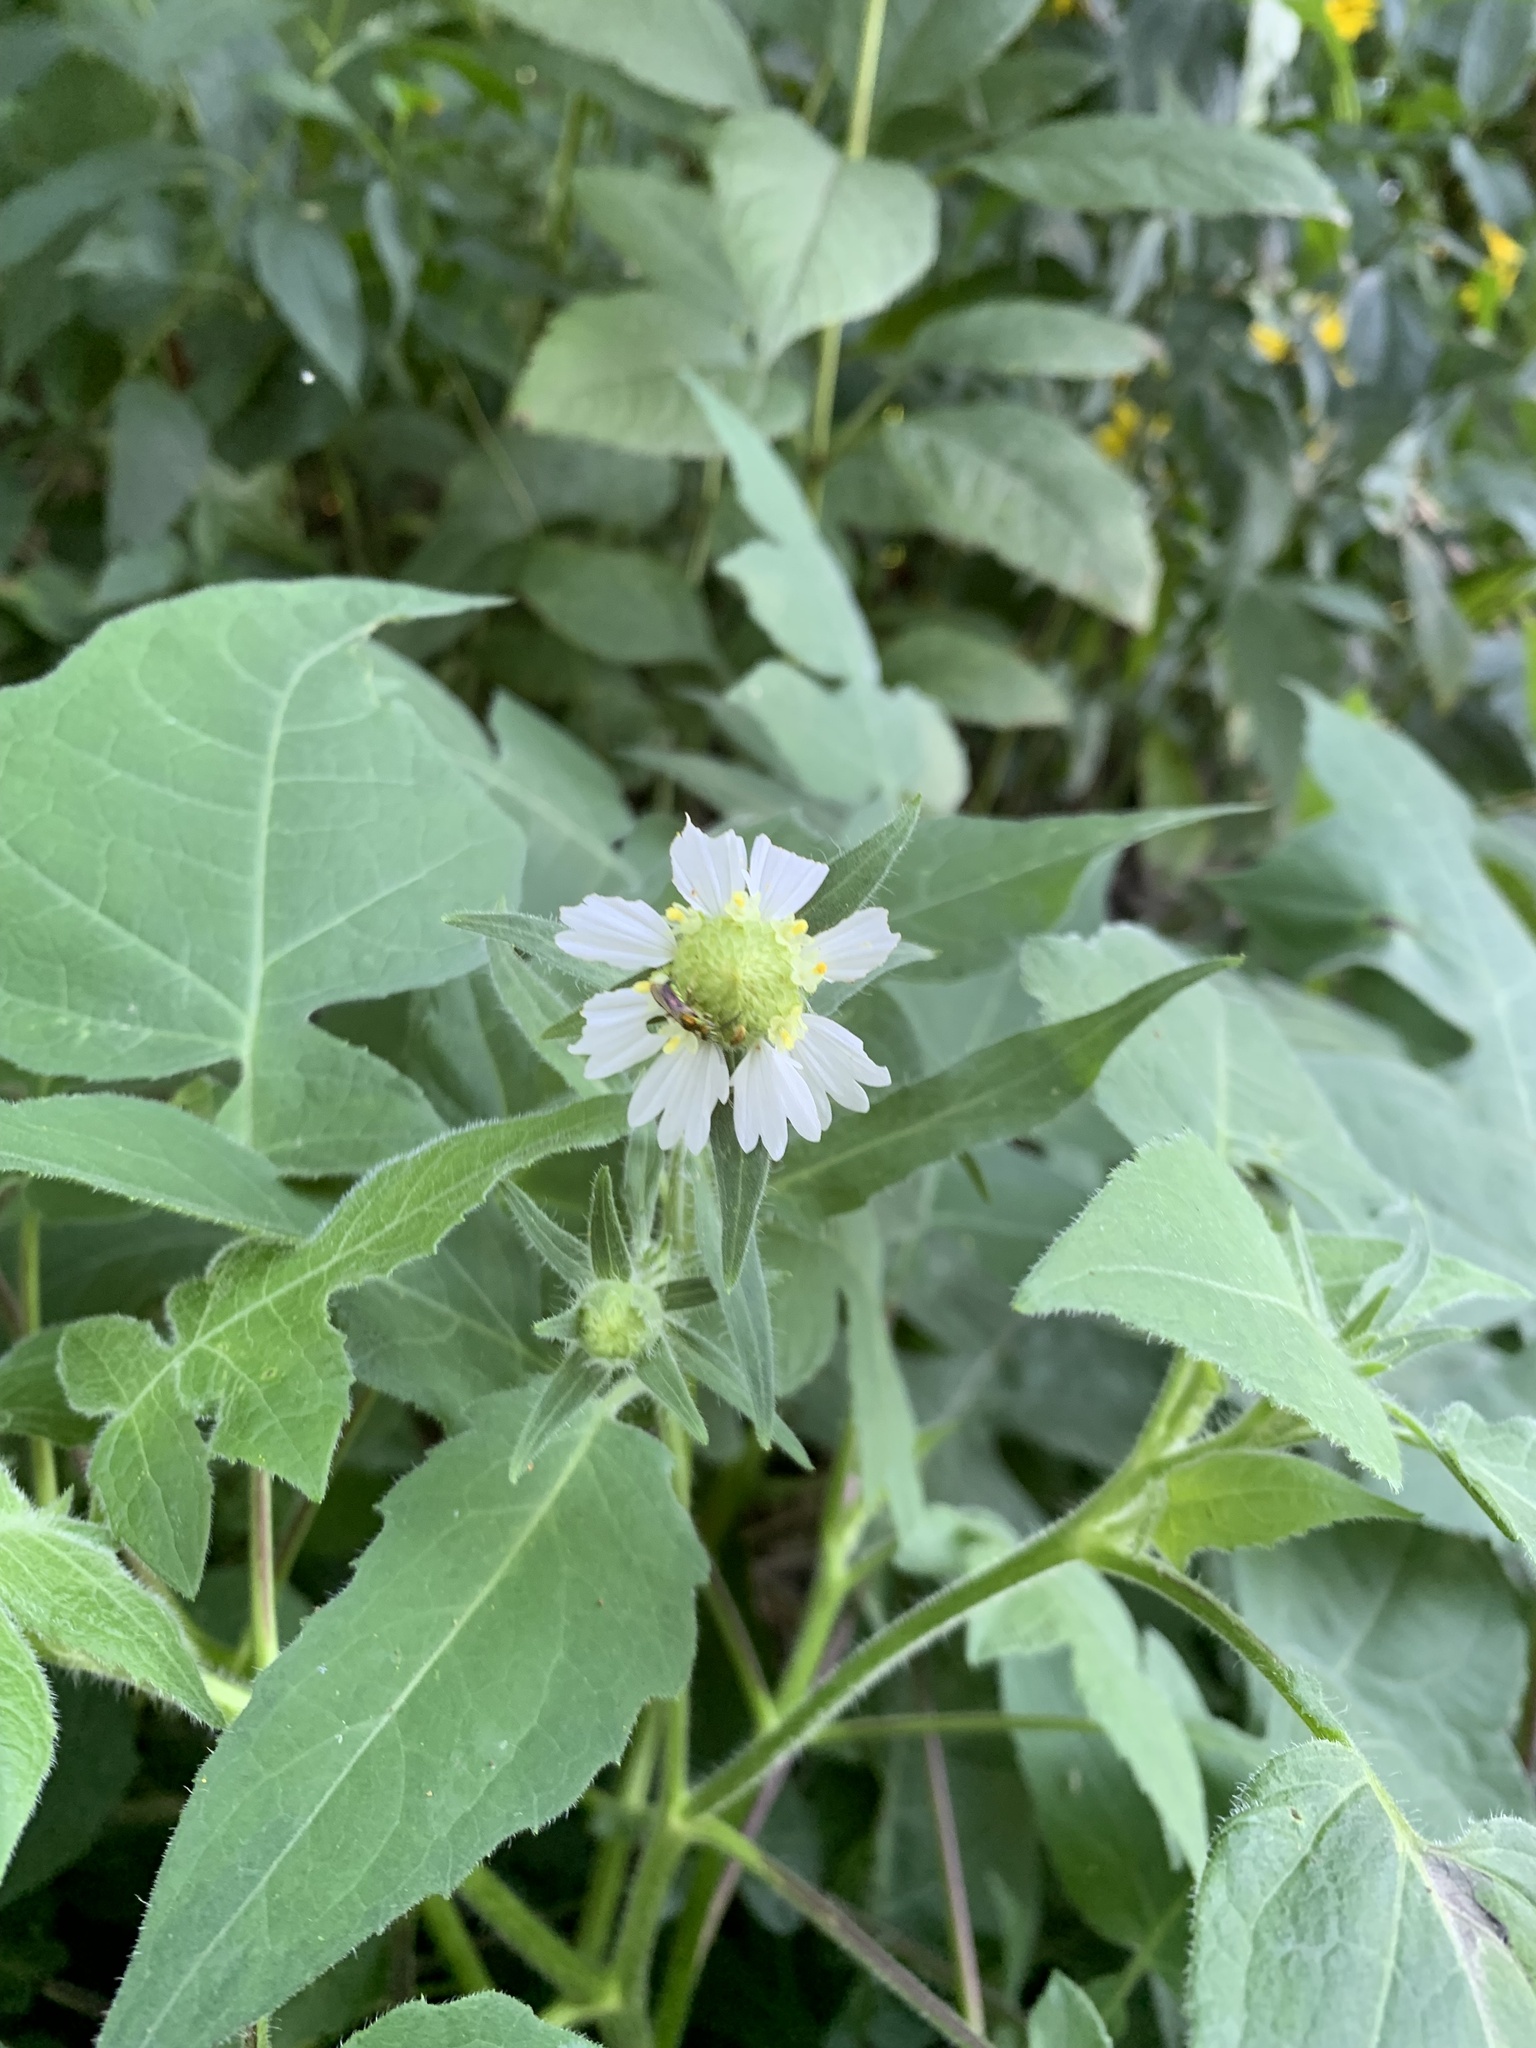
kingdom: Plantae
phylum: Tracheophyta
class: Magnoliopsida
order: Asterales
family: Asteraceae
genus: Polymnia
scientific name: Polymnia canadensis
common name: Pale-flowered leafcup
